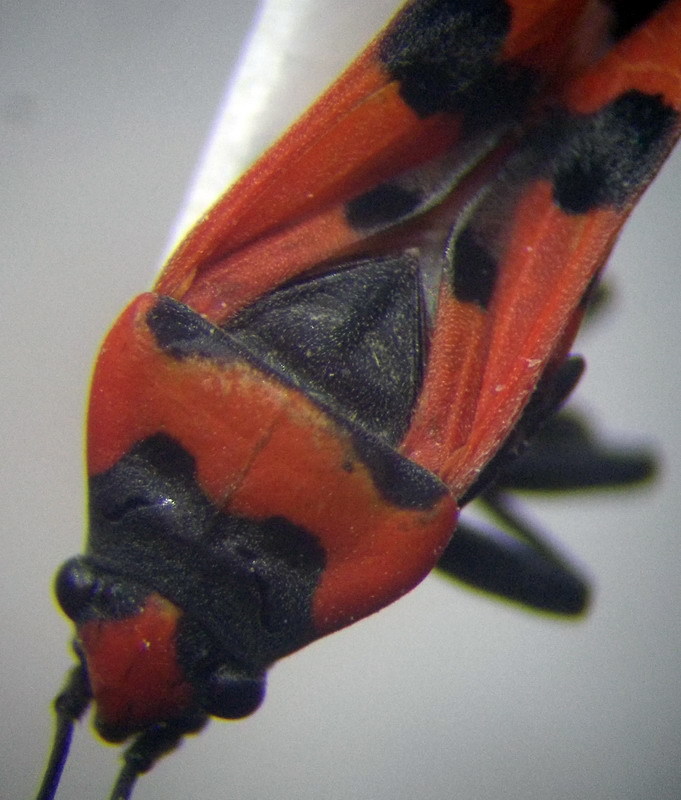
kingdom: Animalia
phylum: Arthropoda
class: Insecta
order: Hemiptera
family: Lygaeidae
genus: Lygaeus
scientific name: Lygaeus simulans
